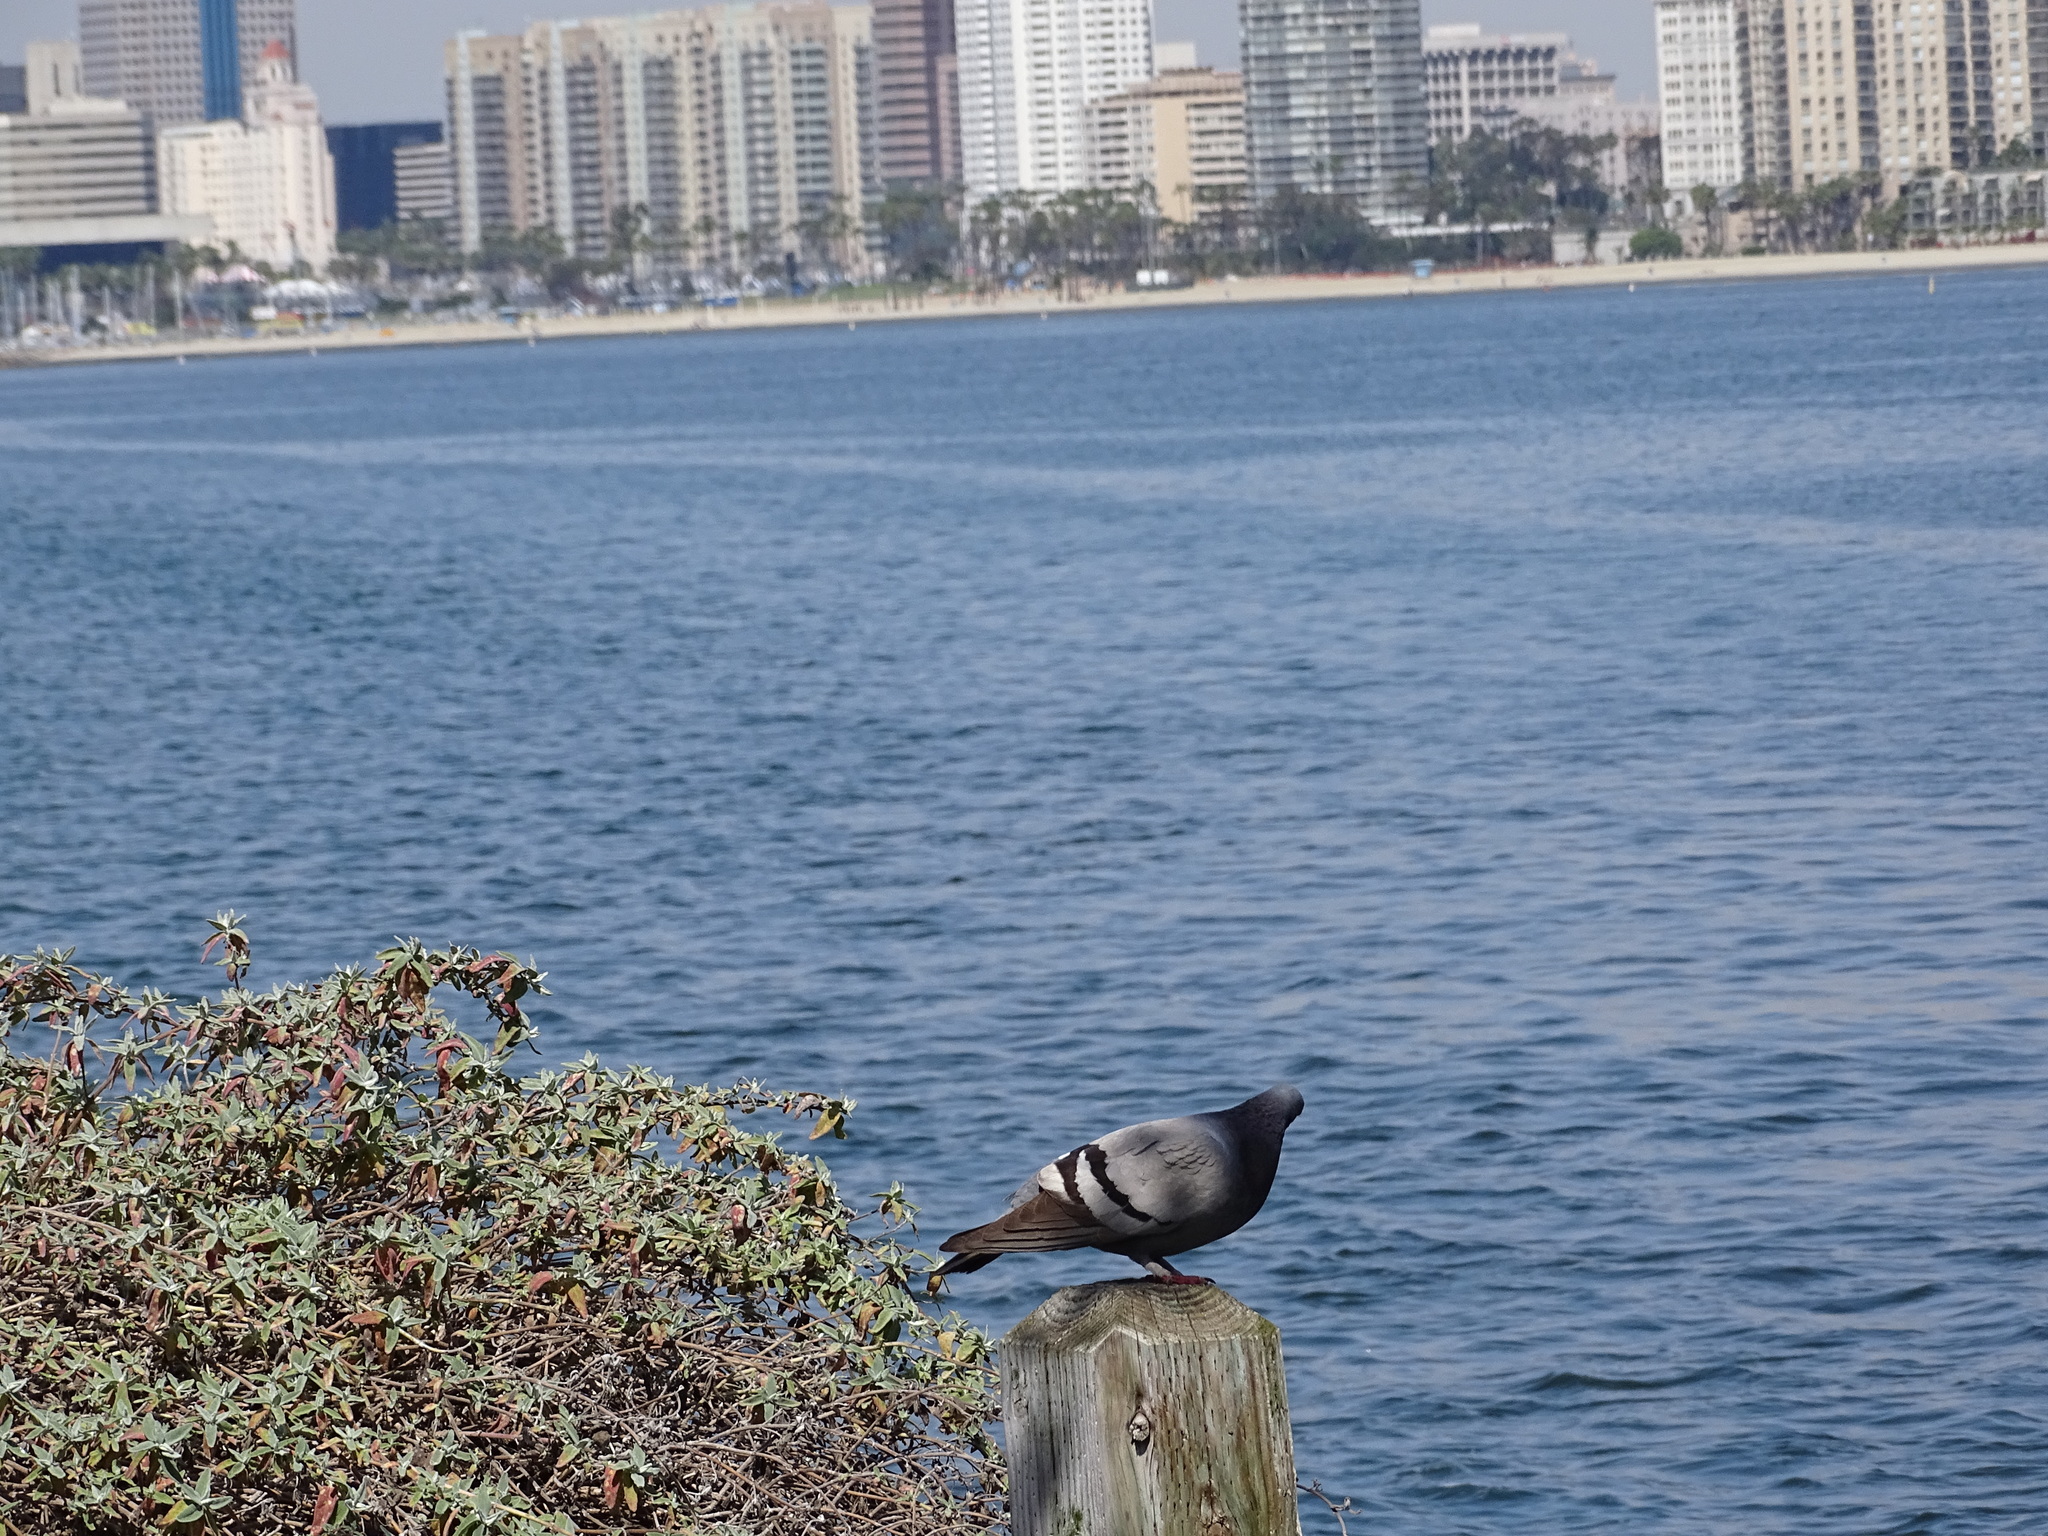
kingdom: Animalia
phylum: Chordata
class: Aves
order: Columbiformes
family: Columbidae
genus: Columba
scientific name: Columba livia
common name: Rock pigeon
